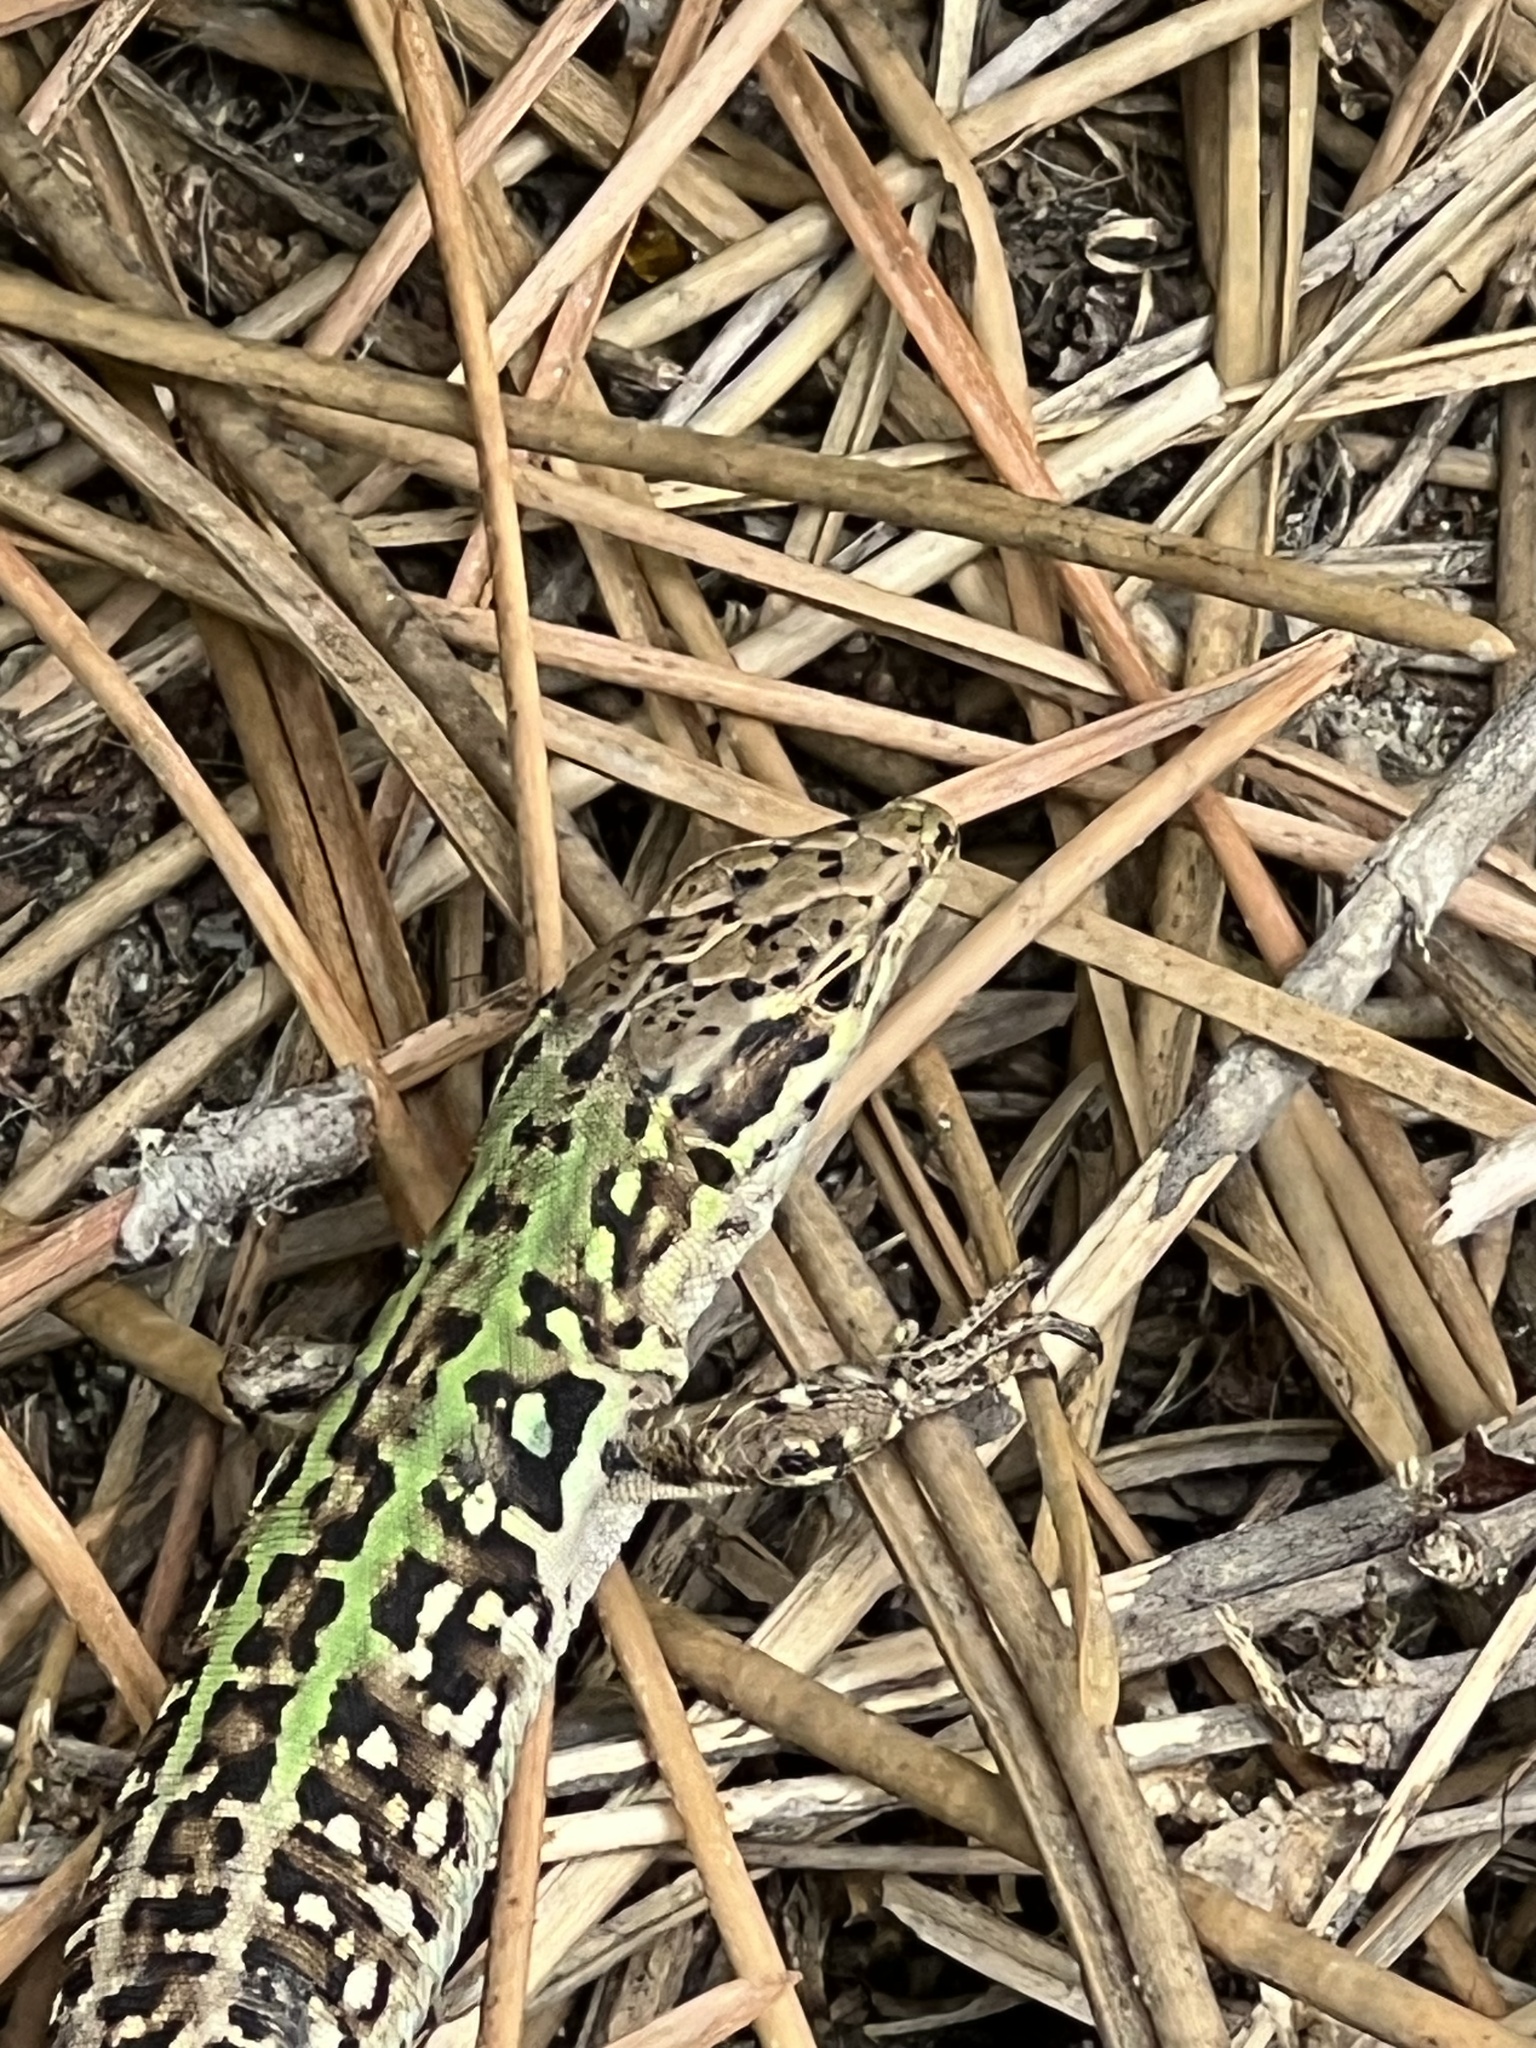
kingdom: Animalia
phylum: Chordata
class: Squamata
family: Lacertidae
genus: Podarcis
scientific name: Podarcis siculus
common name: Italian wall lizard
